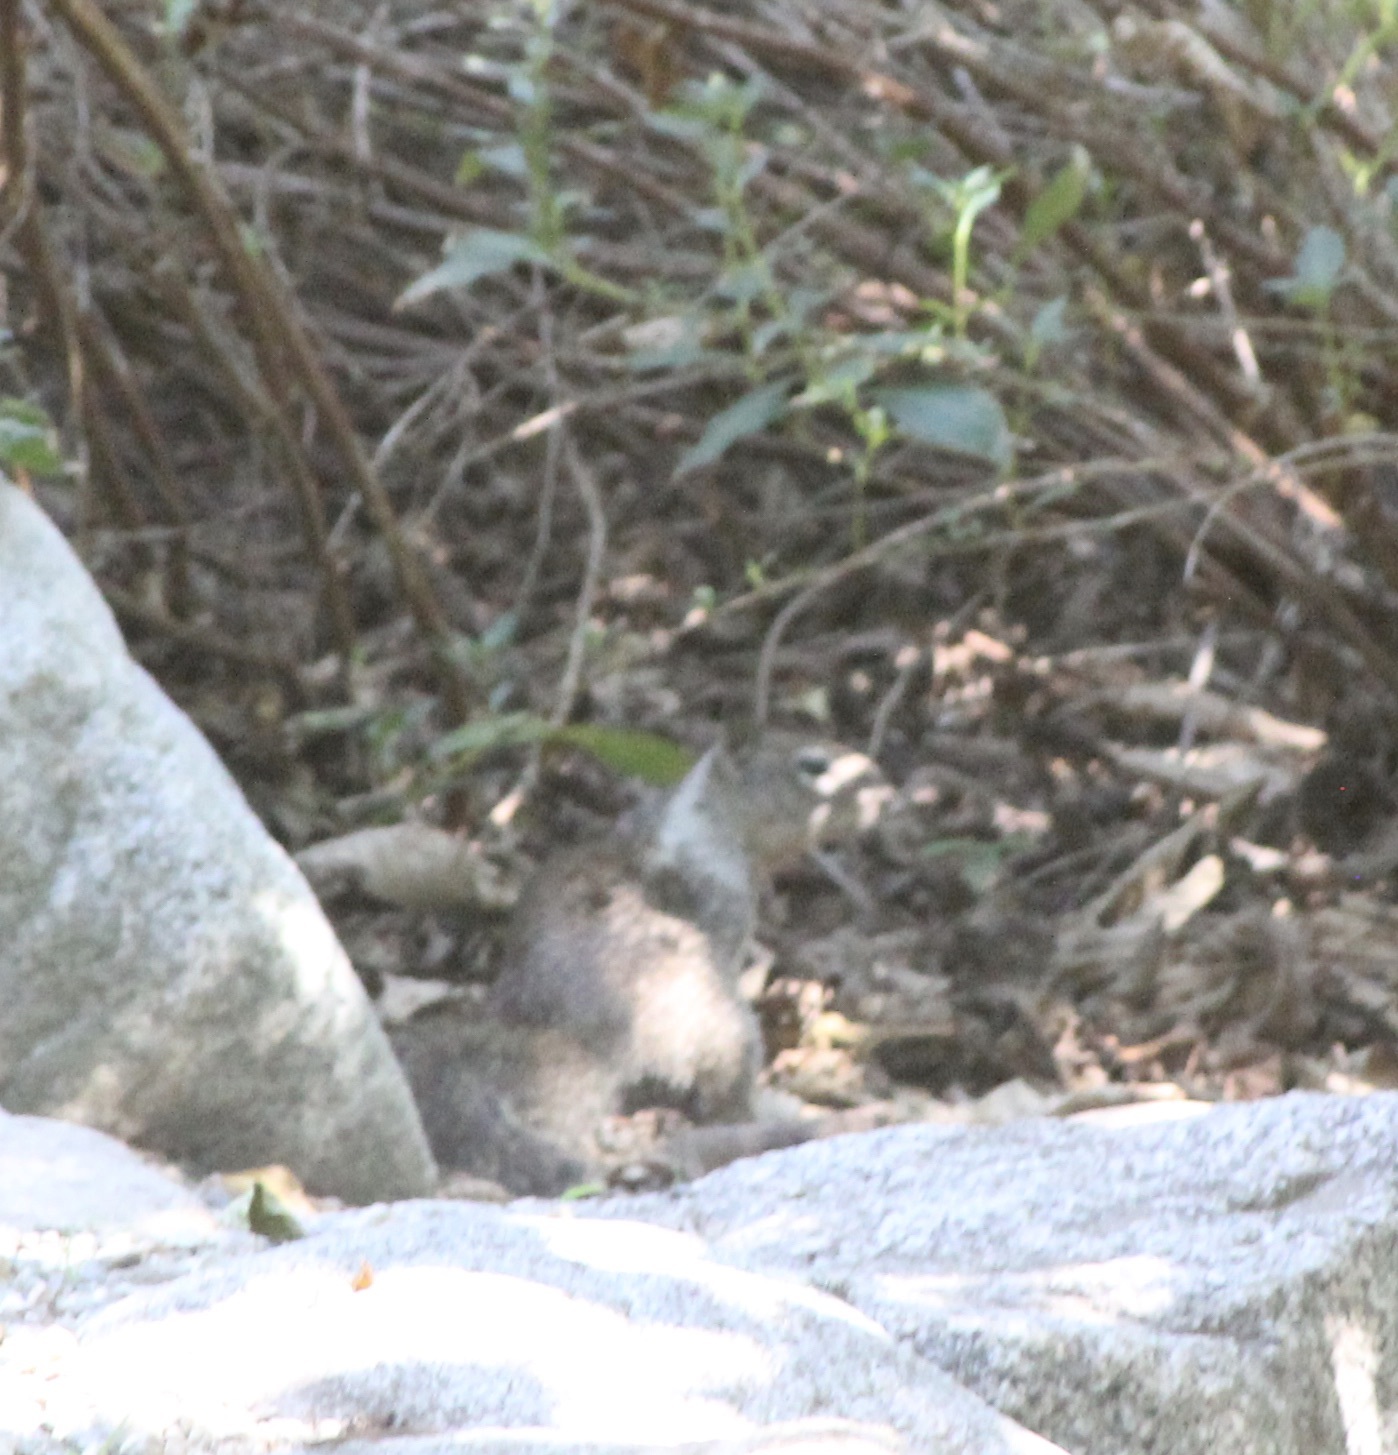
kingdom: Animalia
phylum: Chordata
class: Mammalia
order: Rodentia
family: Sciuridae
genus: Otospermophilus
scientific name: Otospermophilus beecheyi
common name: California ground squirrel
